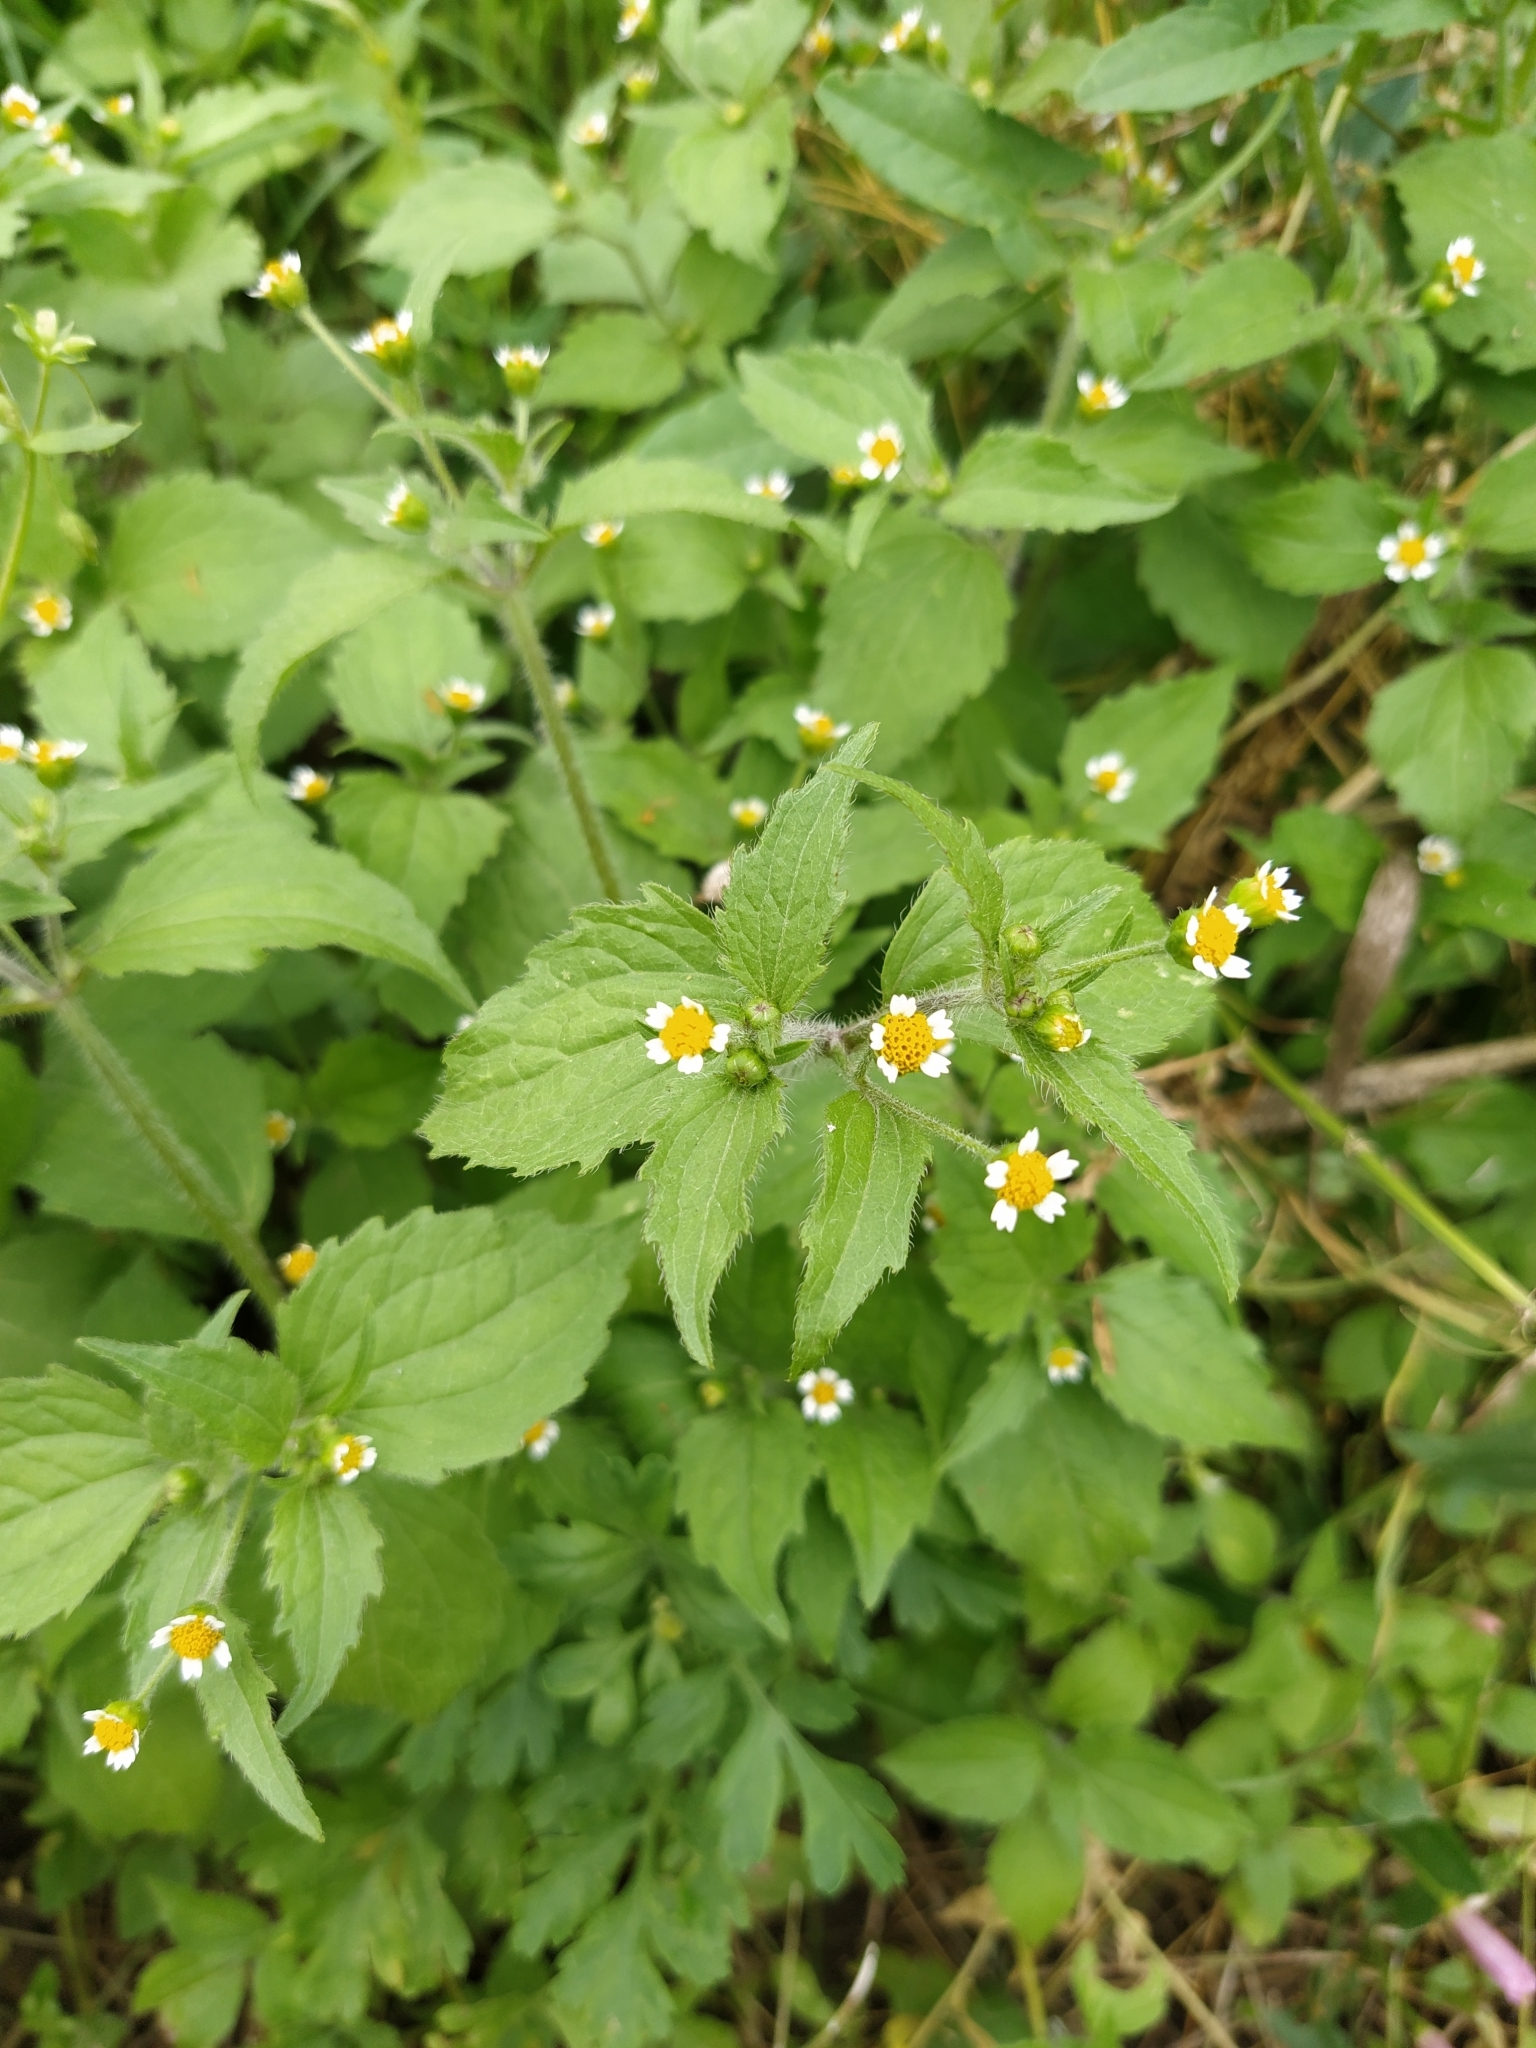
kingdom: Plantae
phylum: Tracheophyta
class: Magnoliopsida
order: Asterales
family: Asteraceae
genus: Galinsoga
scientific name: Galinsoga quadriradiata
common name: Shaggy soldier
